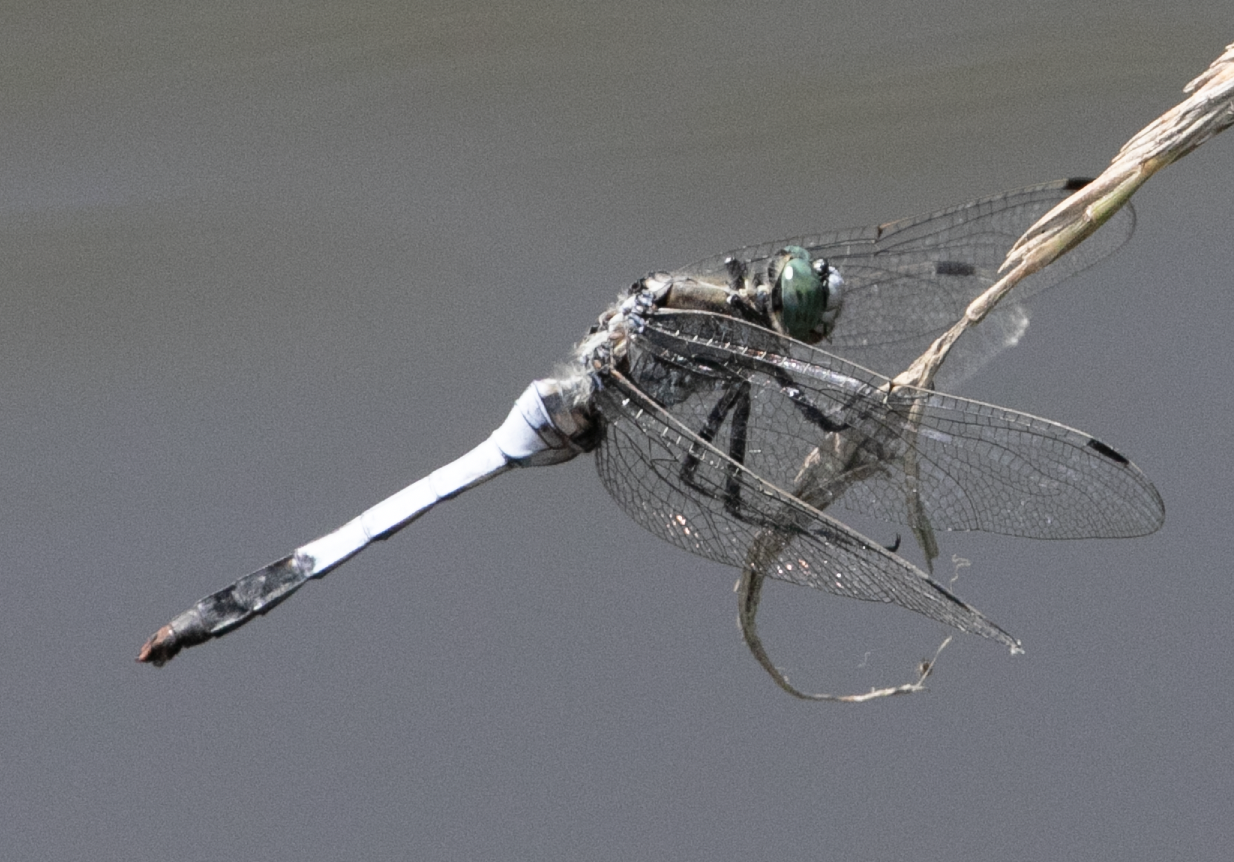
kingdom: Animalia
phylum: Arthropoda
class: Insecta
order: Odonata
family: Libellulidae
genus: Orthetrum
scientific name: Orthetrum albistylum
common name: White-tailed skimmer
